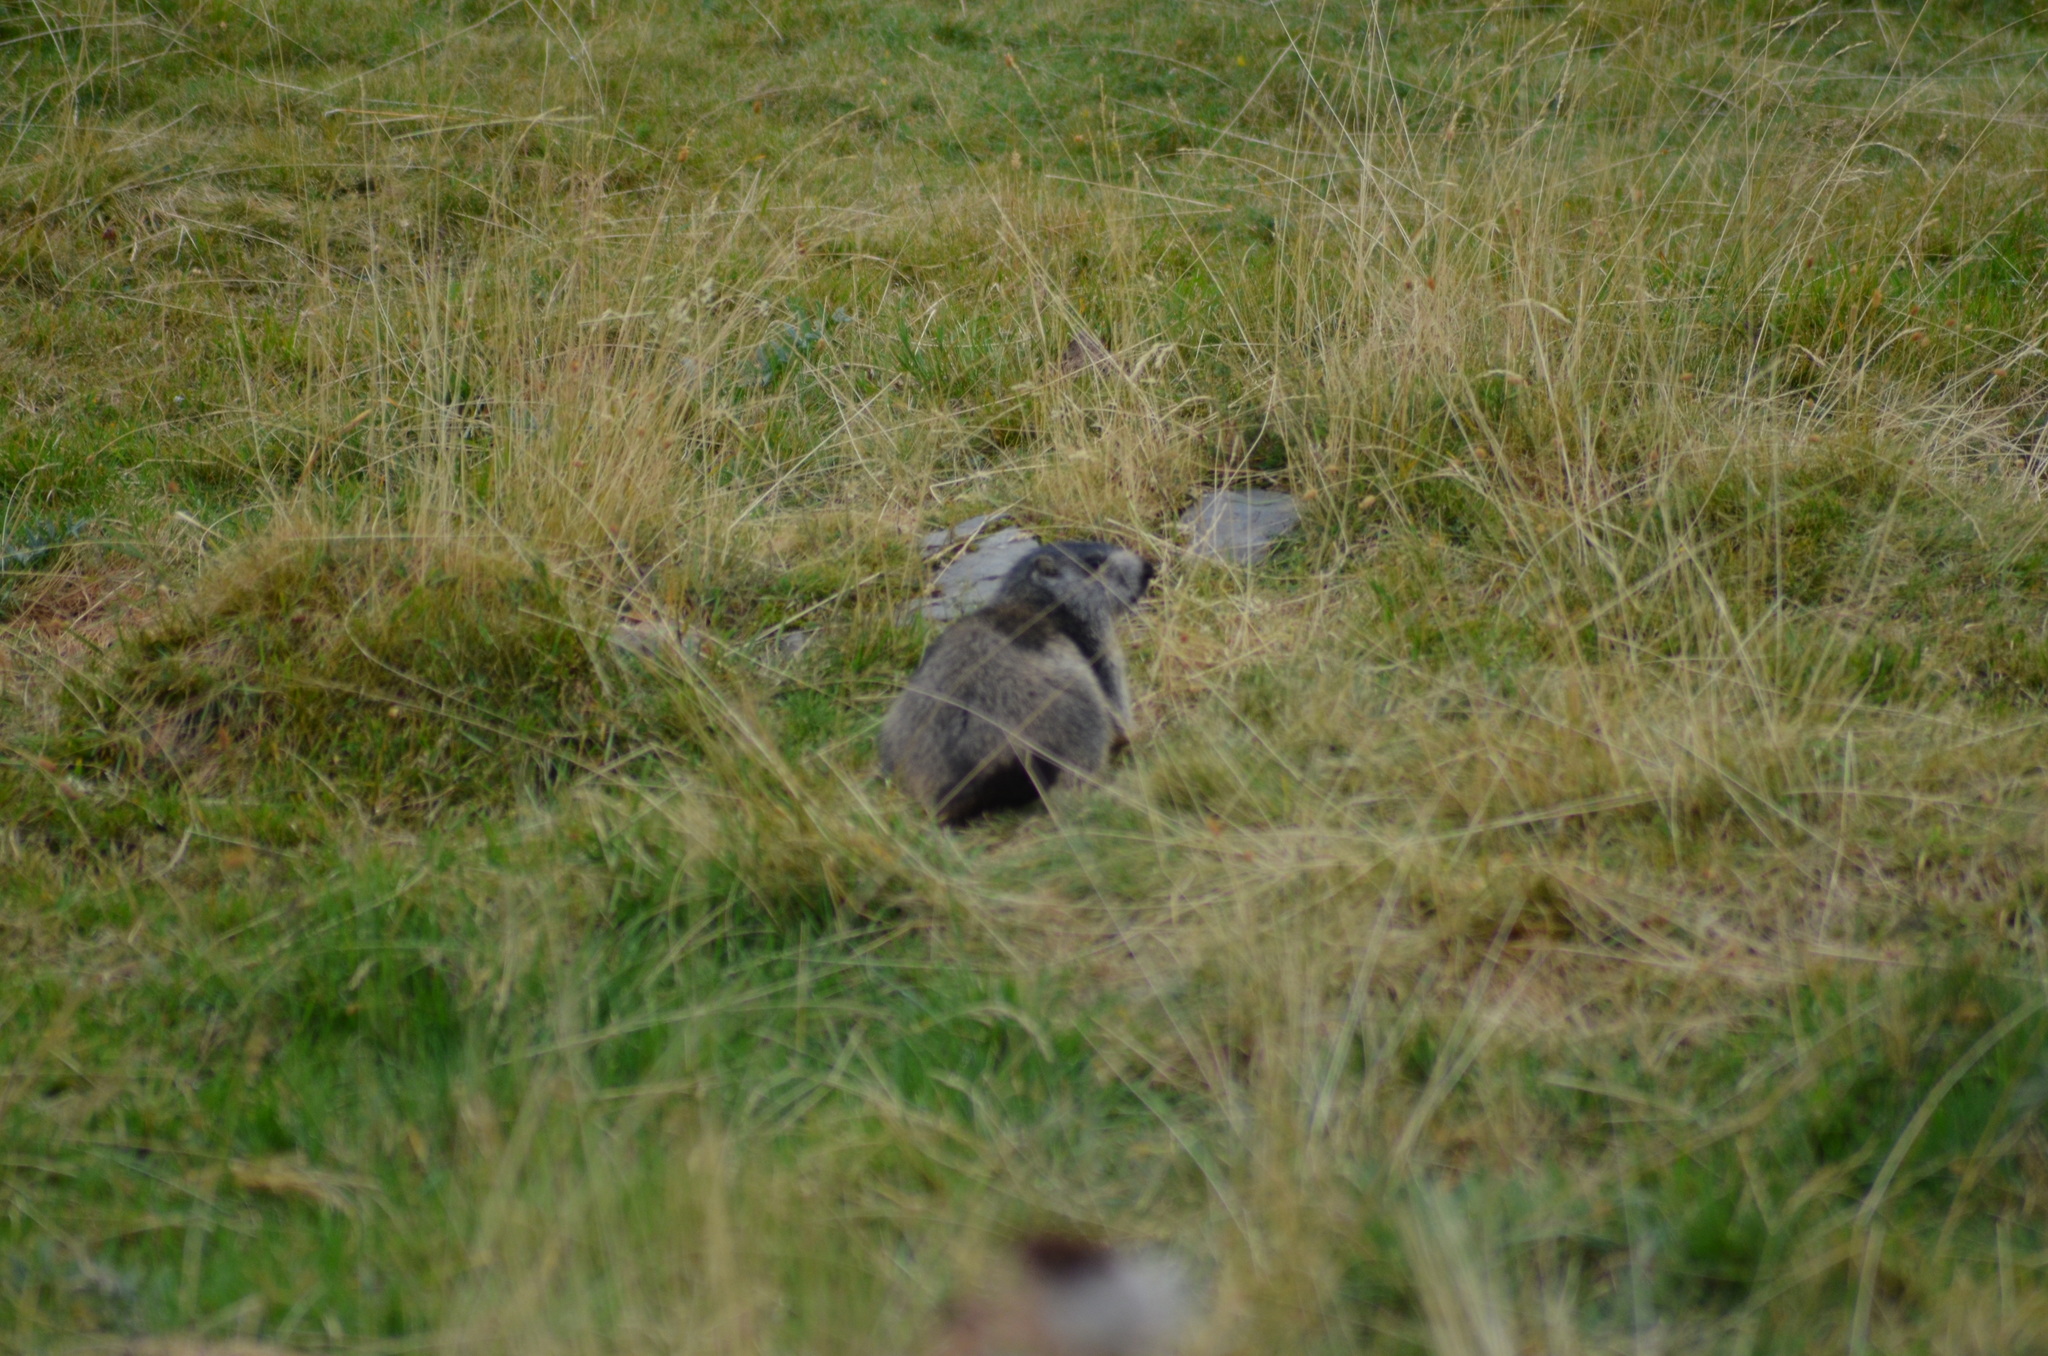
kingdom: Animalia
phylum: Chordata
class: Mammalia
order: Rodentia
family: Sciuridae
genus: Marmota
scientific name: Marmota marmota
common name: Alpine marmot
